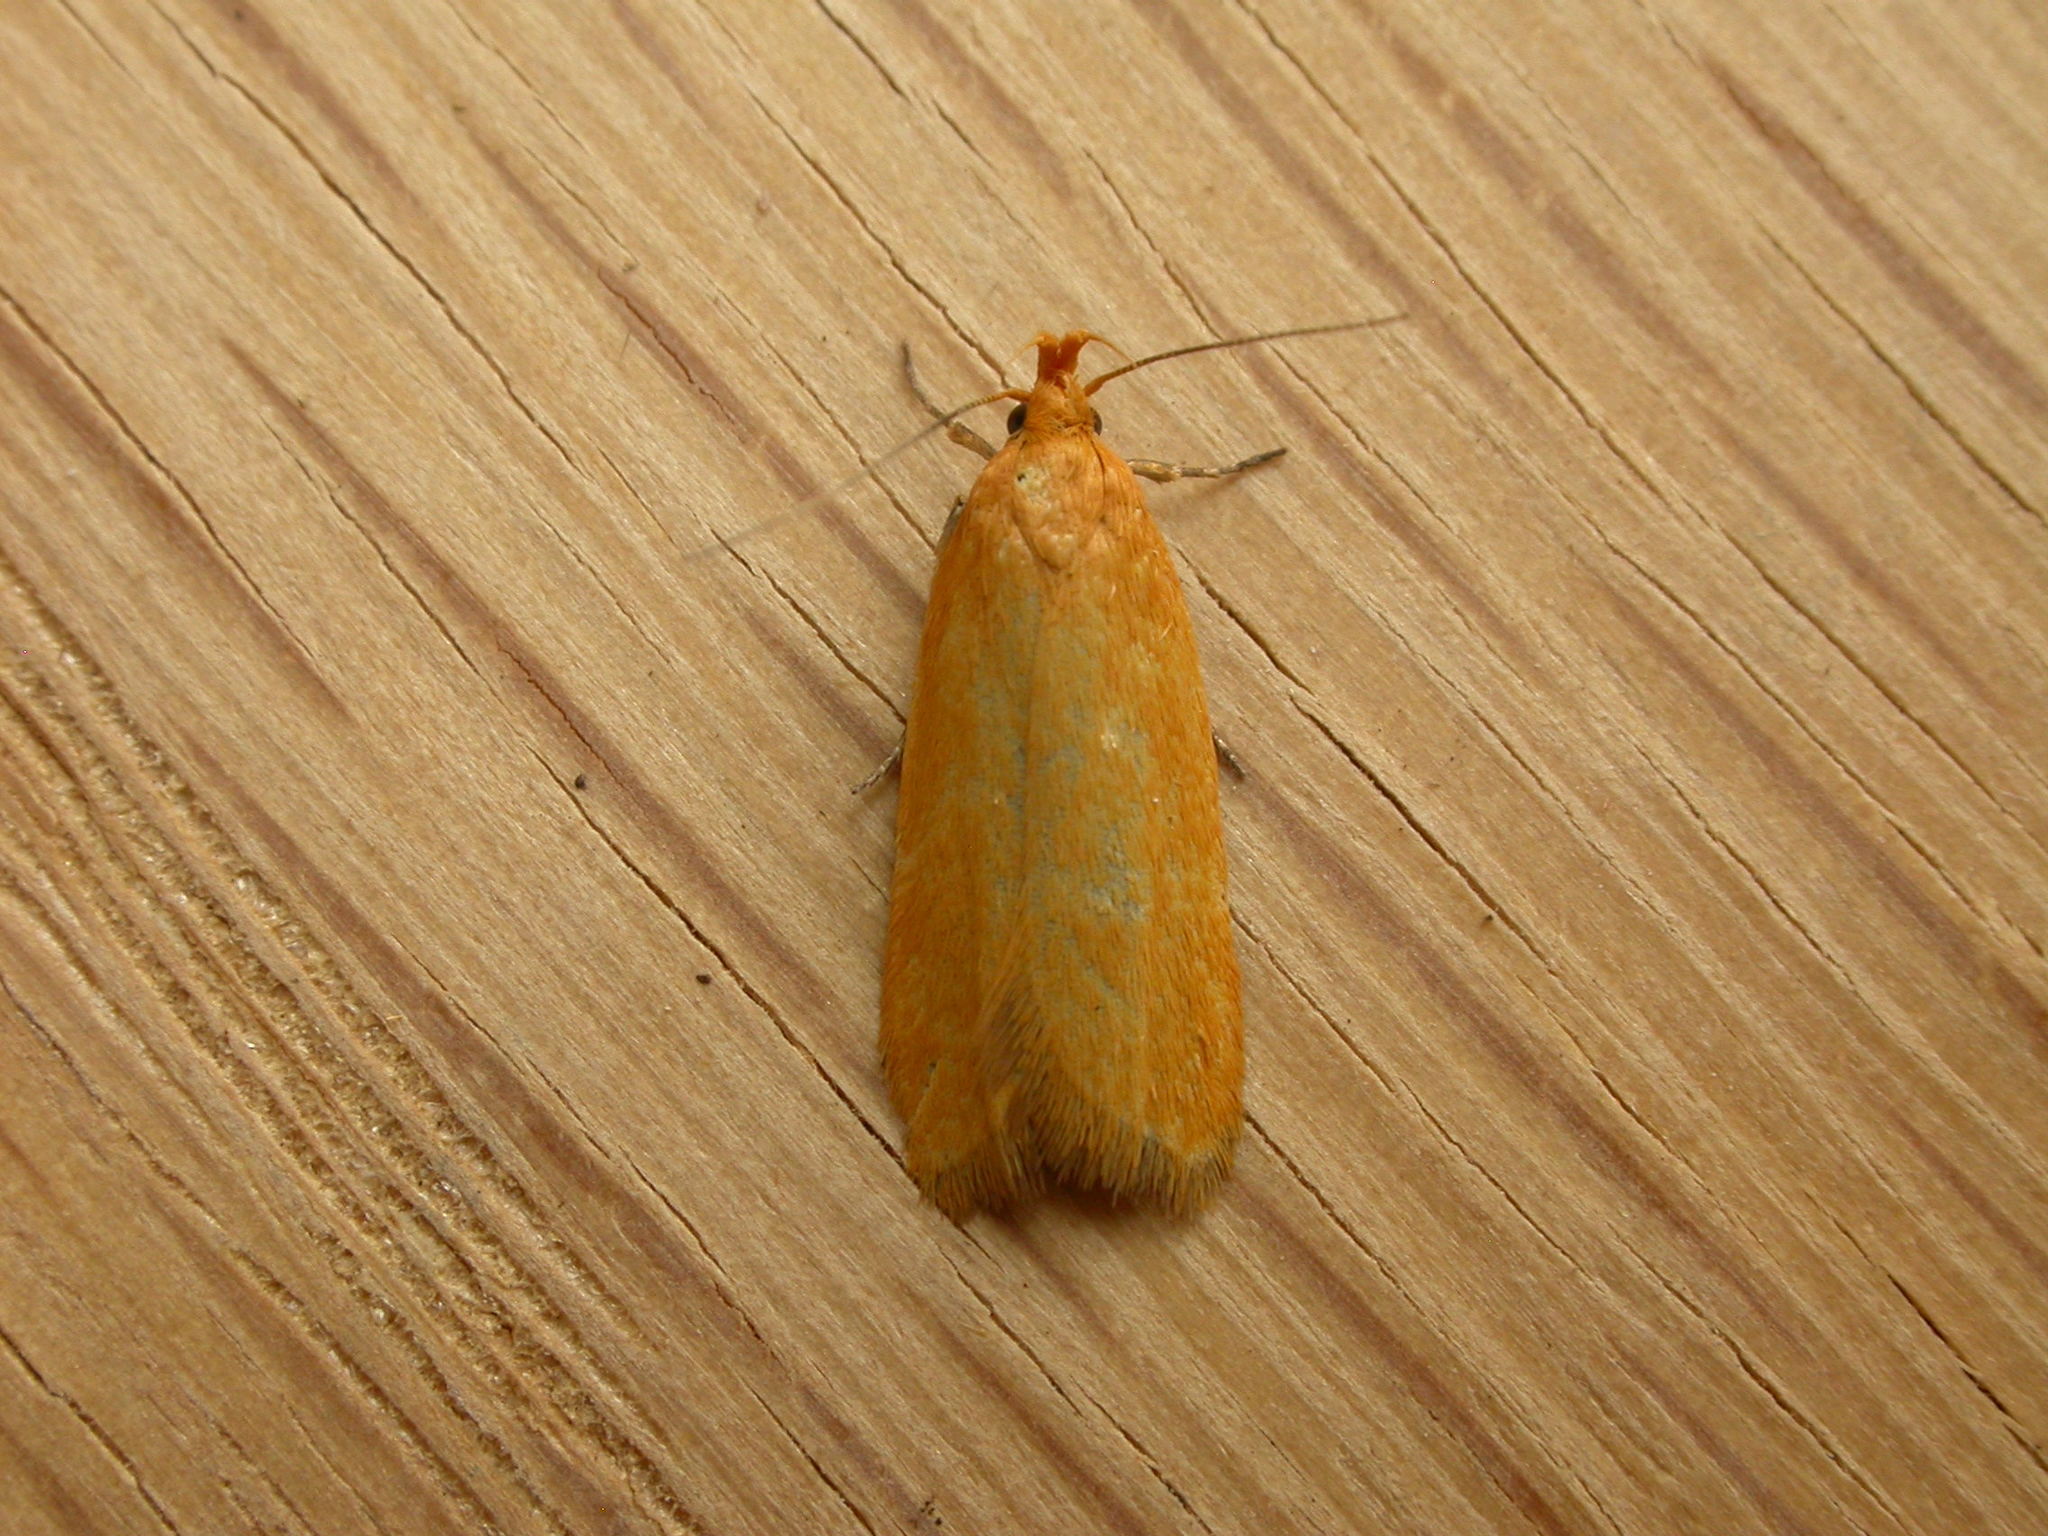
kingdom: Animalia
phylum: Arthropoda
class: Insecta
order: Lepidoptera
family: Oecophoridae
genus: Eulechria
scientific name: Eulechria electrodes
